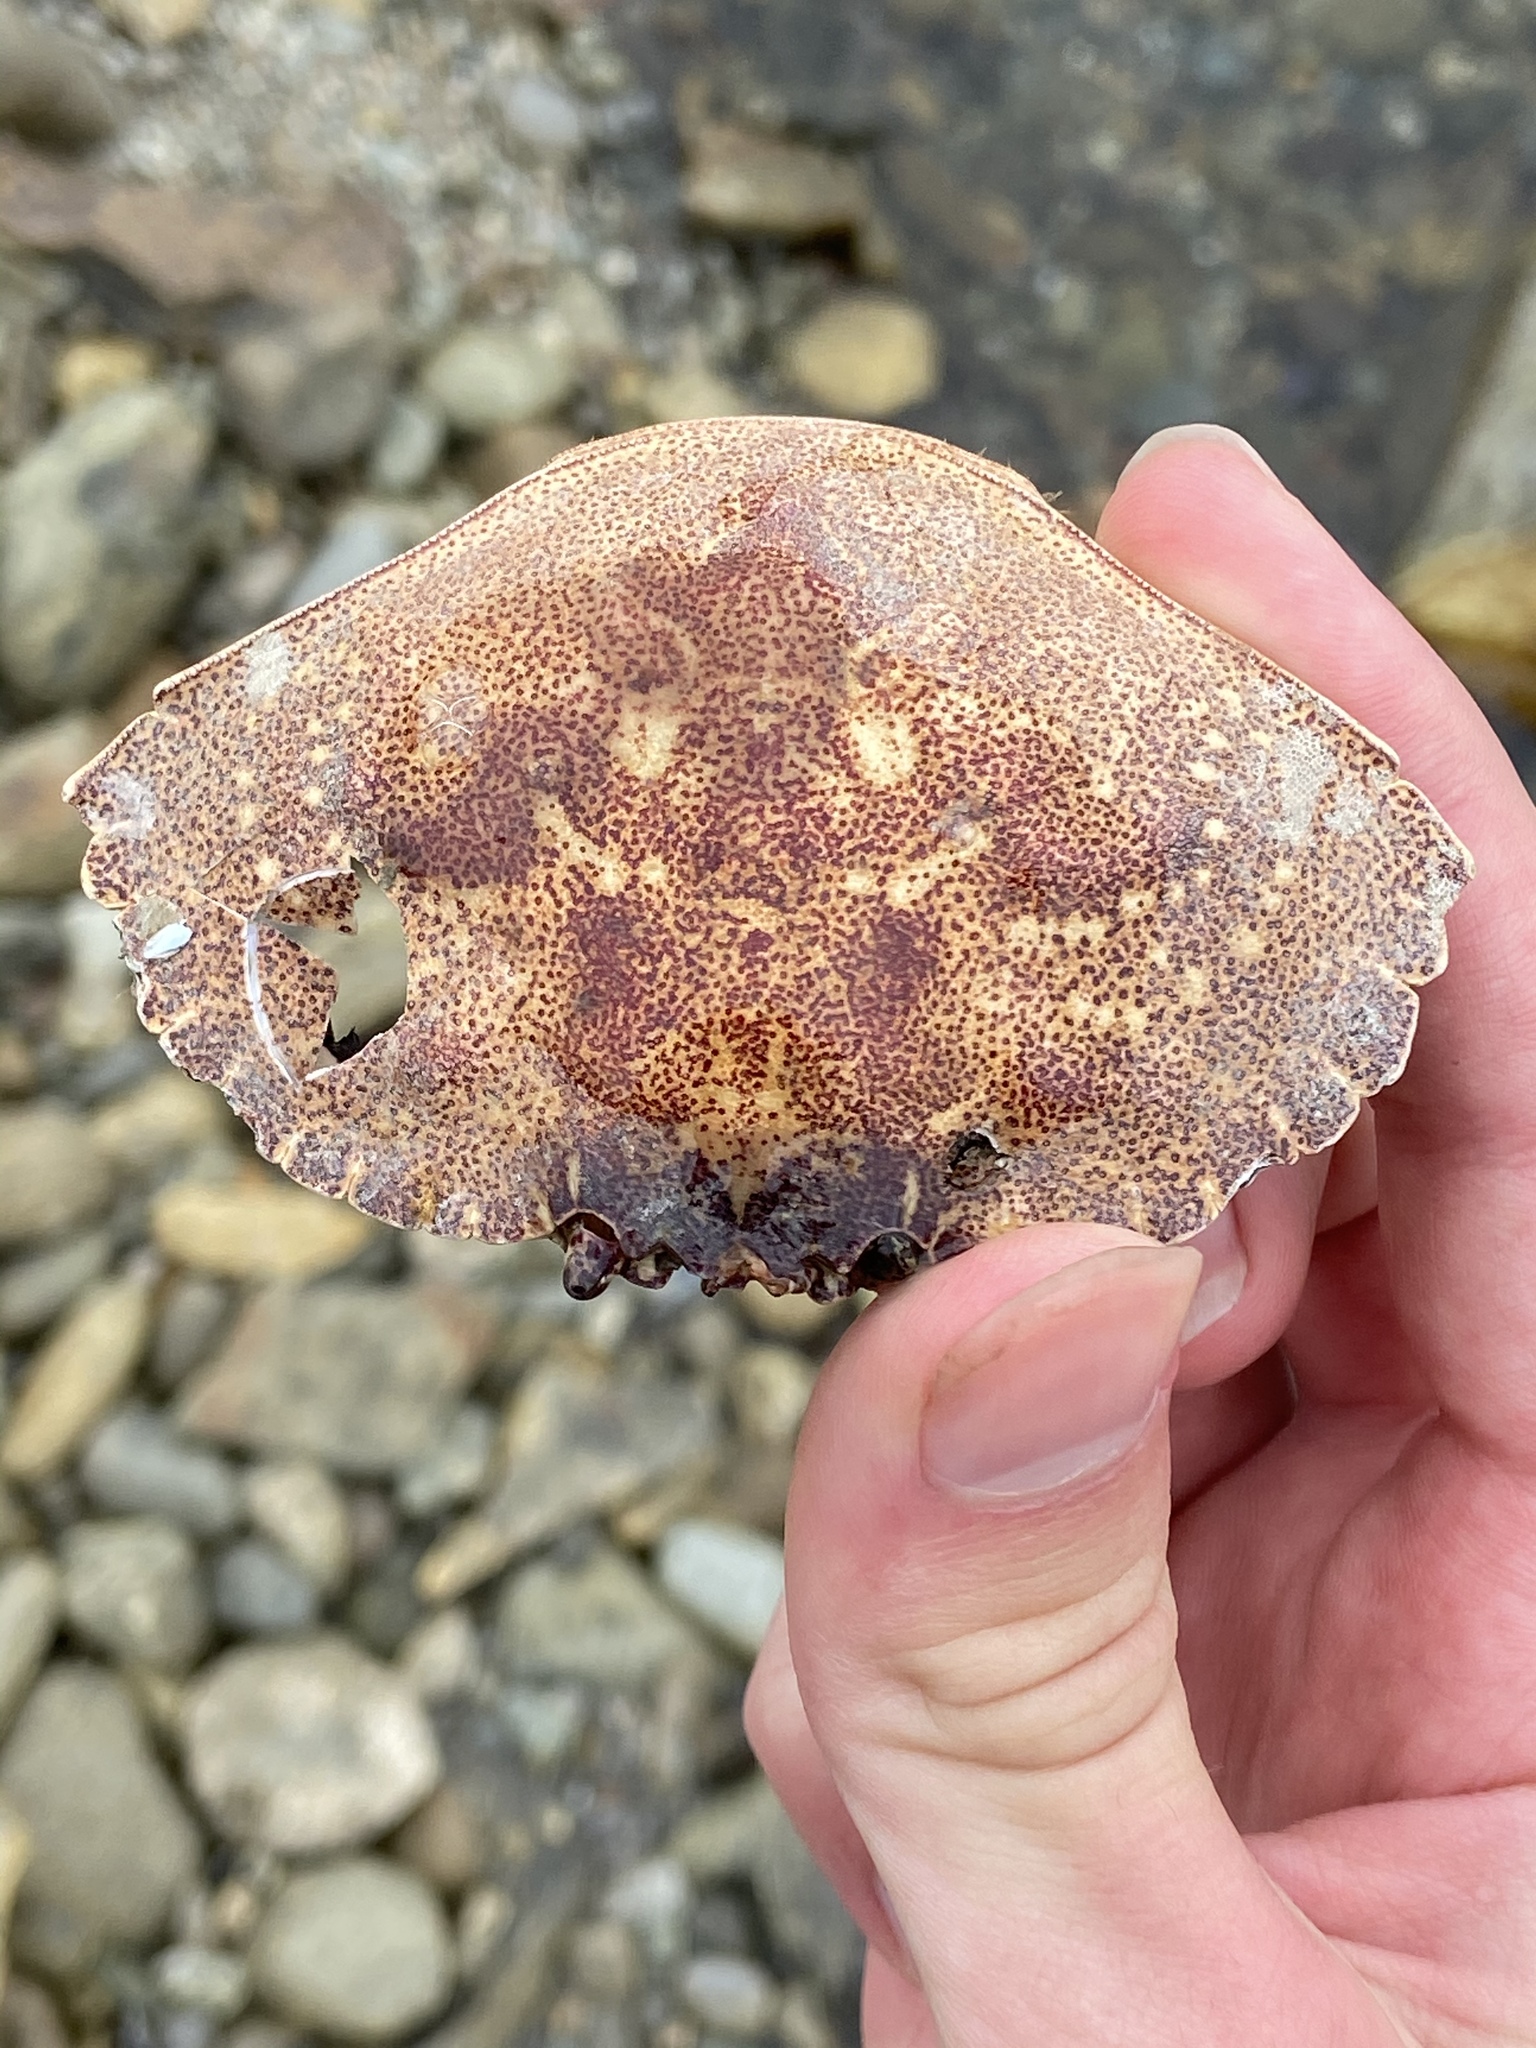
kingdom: Animalia
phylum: Arthropoda
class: Malacostraca
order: Decapoda
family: Cancridae
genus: Cancer
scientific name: Cancer irroratus
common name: Atlantic rock crab
